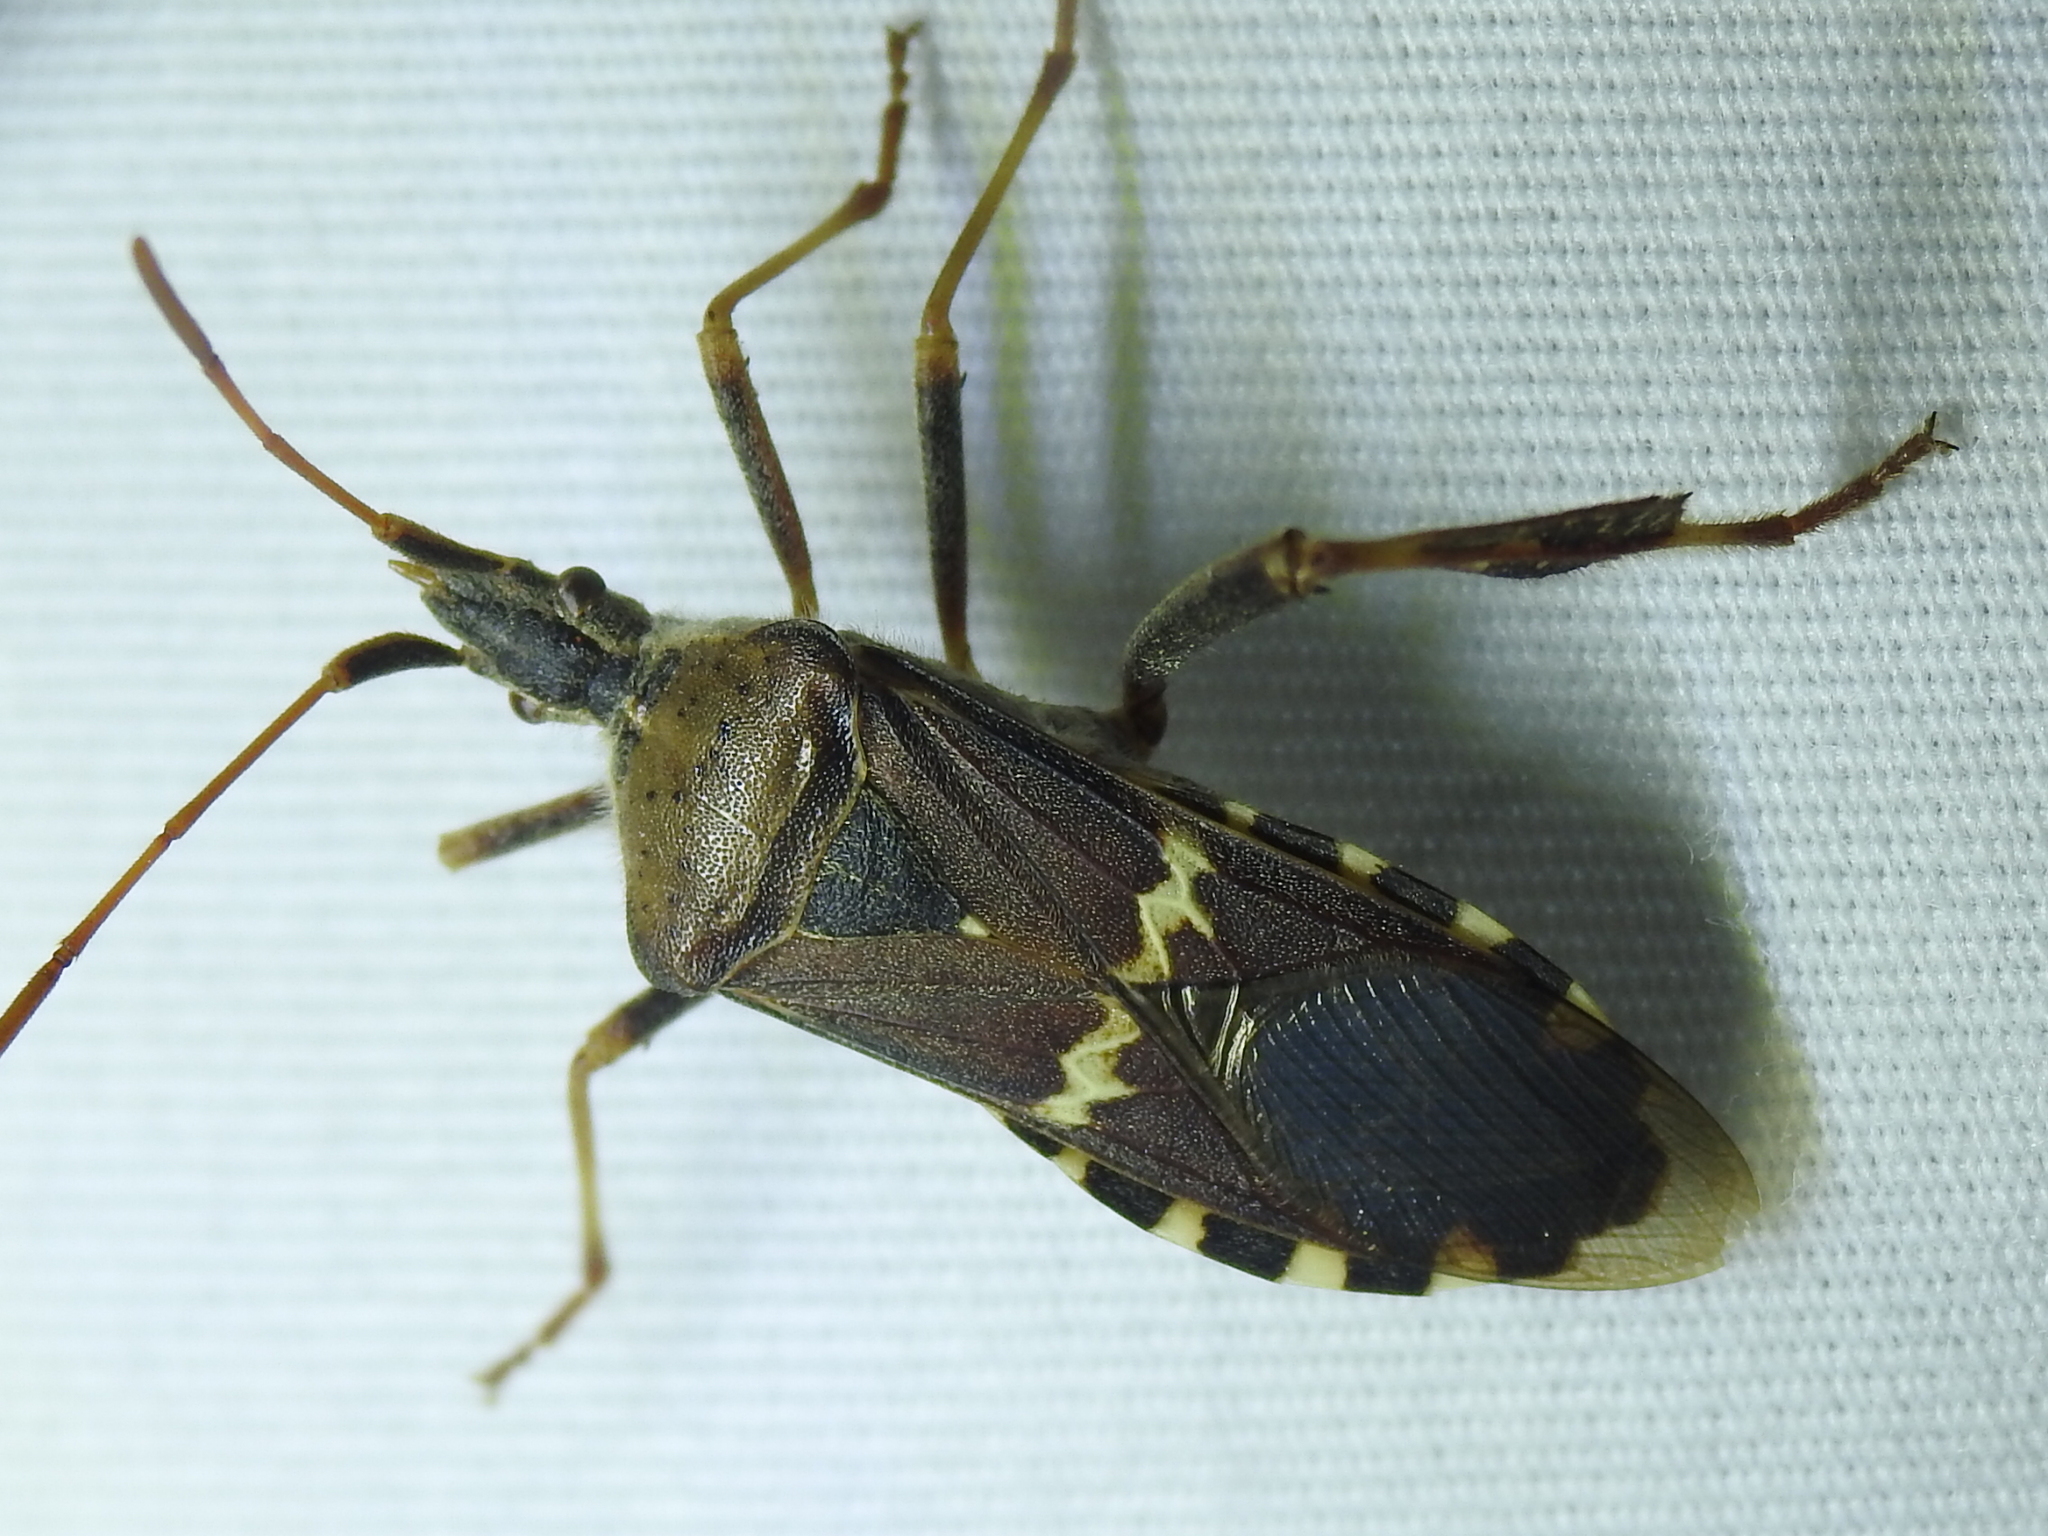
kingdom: Animalia
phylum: Arthropoda
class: Insecta
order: Hemiptera
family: Coreidae
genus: Leptoglossus
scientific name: Leptoglossus clypealis
